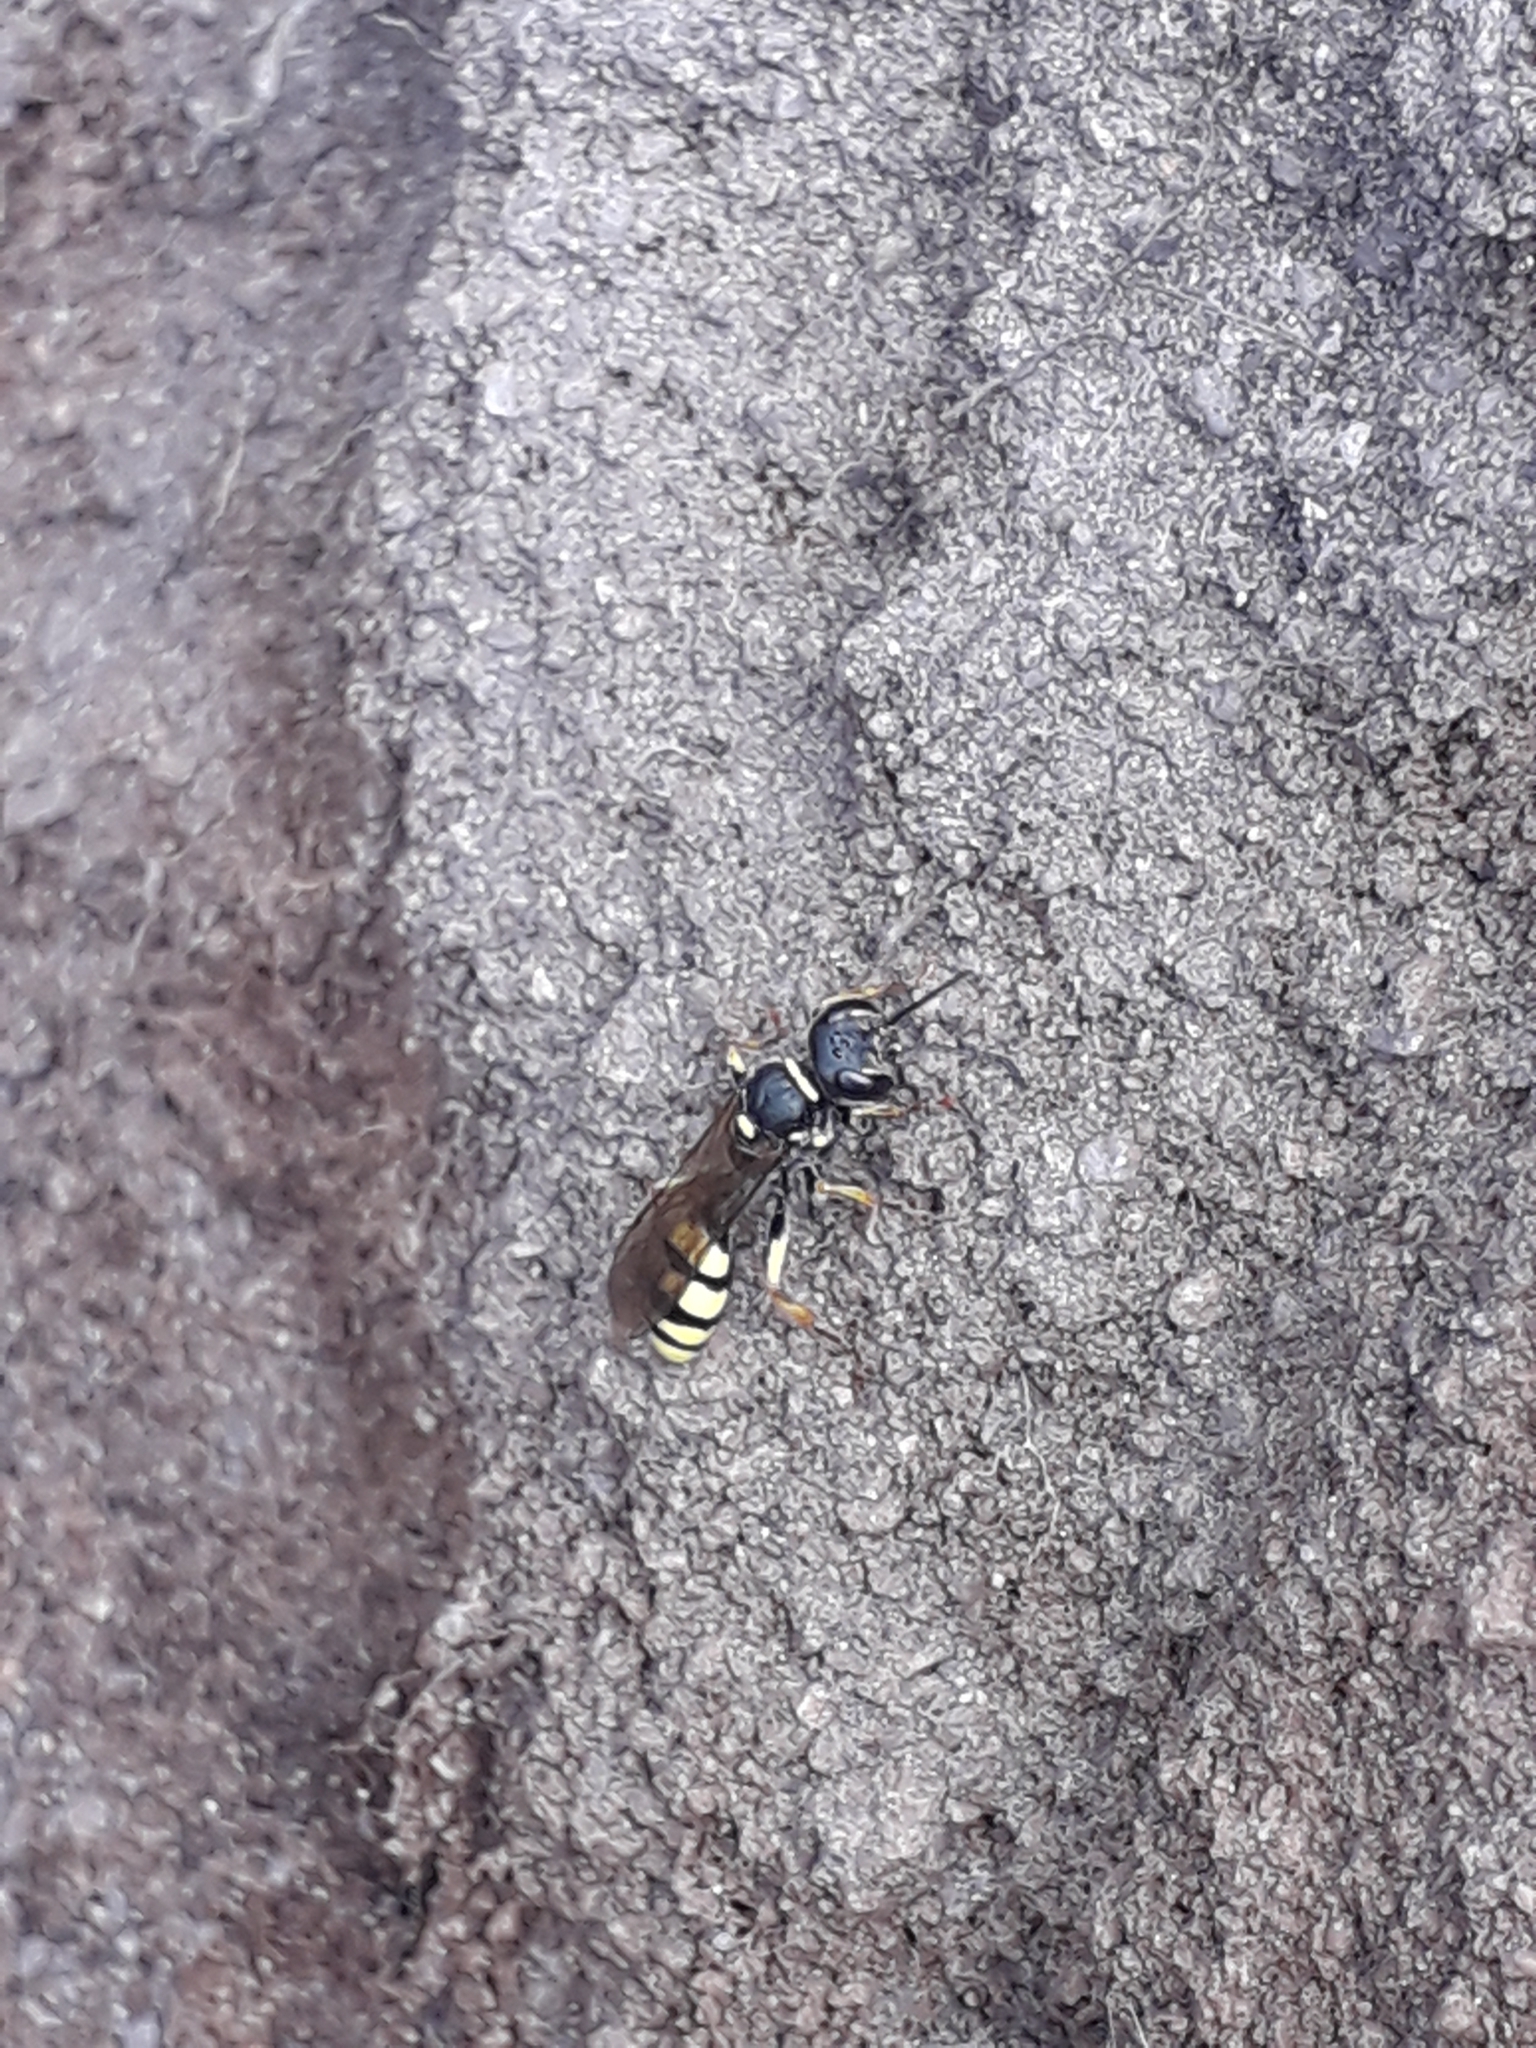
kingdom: Animalia
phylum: Arthropoda
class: Insecta
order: Hymenoptera
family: Crabronidae
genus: Mellinus
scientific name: Mellinus arvensis
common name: Field digger wasp
